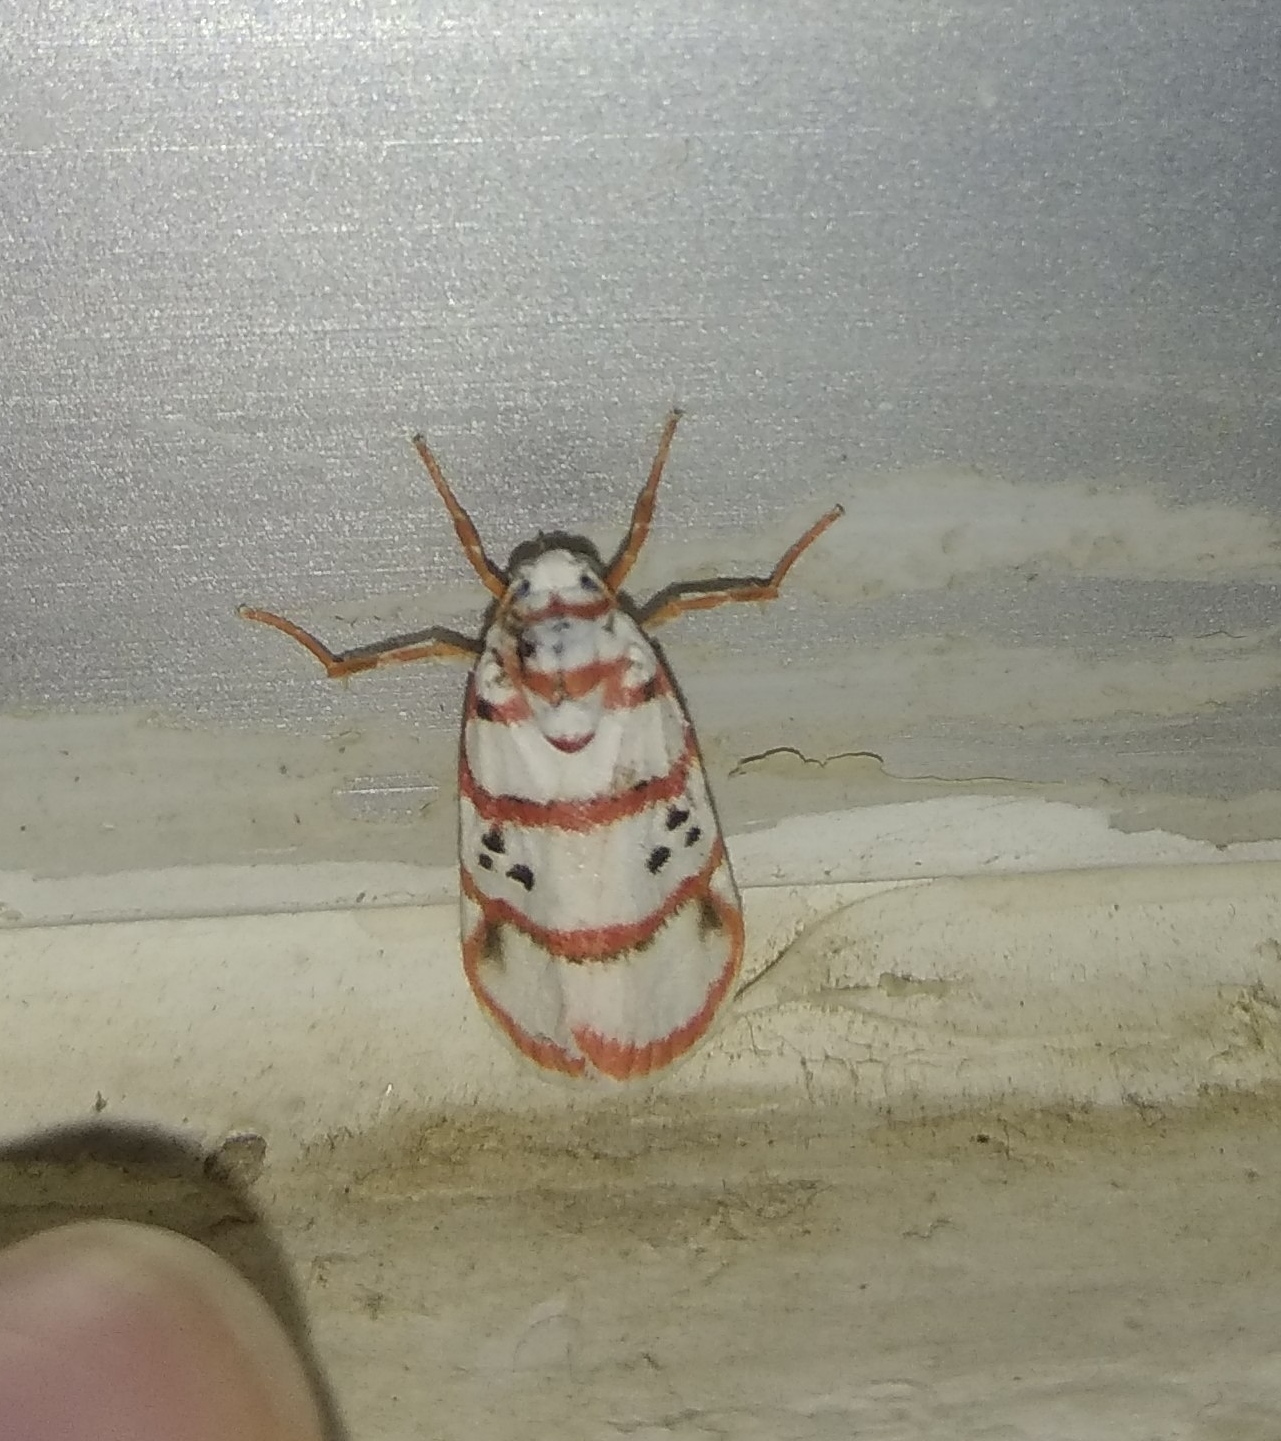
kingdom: Animalia
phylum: Arthropoda
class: Insecta
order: Lepidoptera
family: Erebidae
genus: Cyana
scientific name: Cyana peregrina
